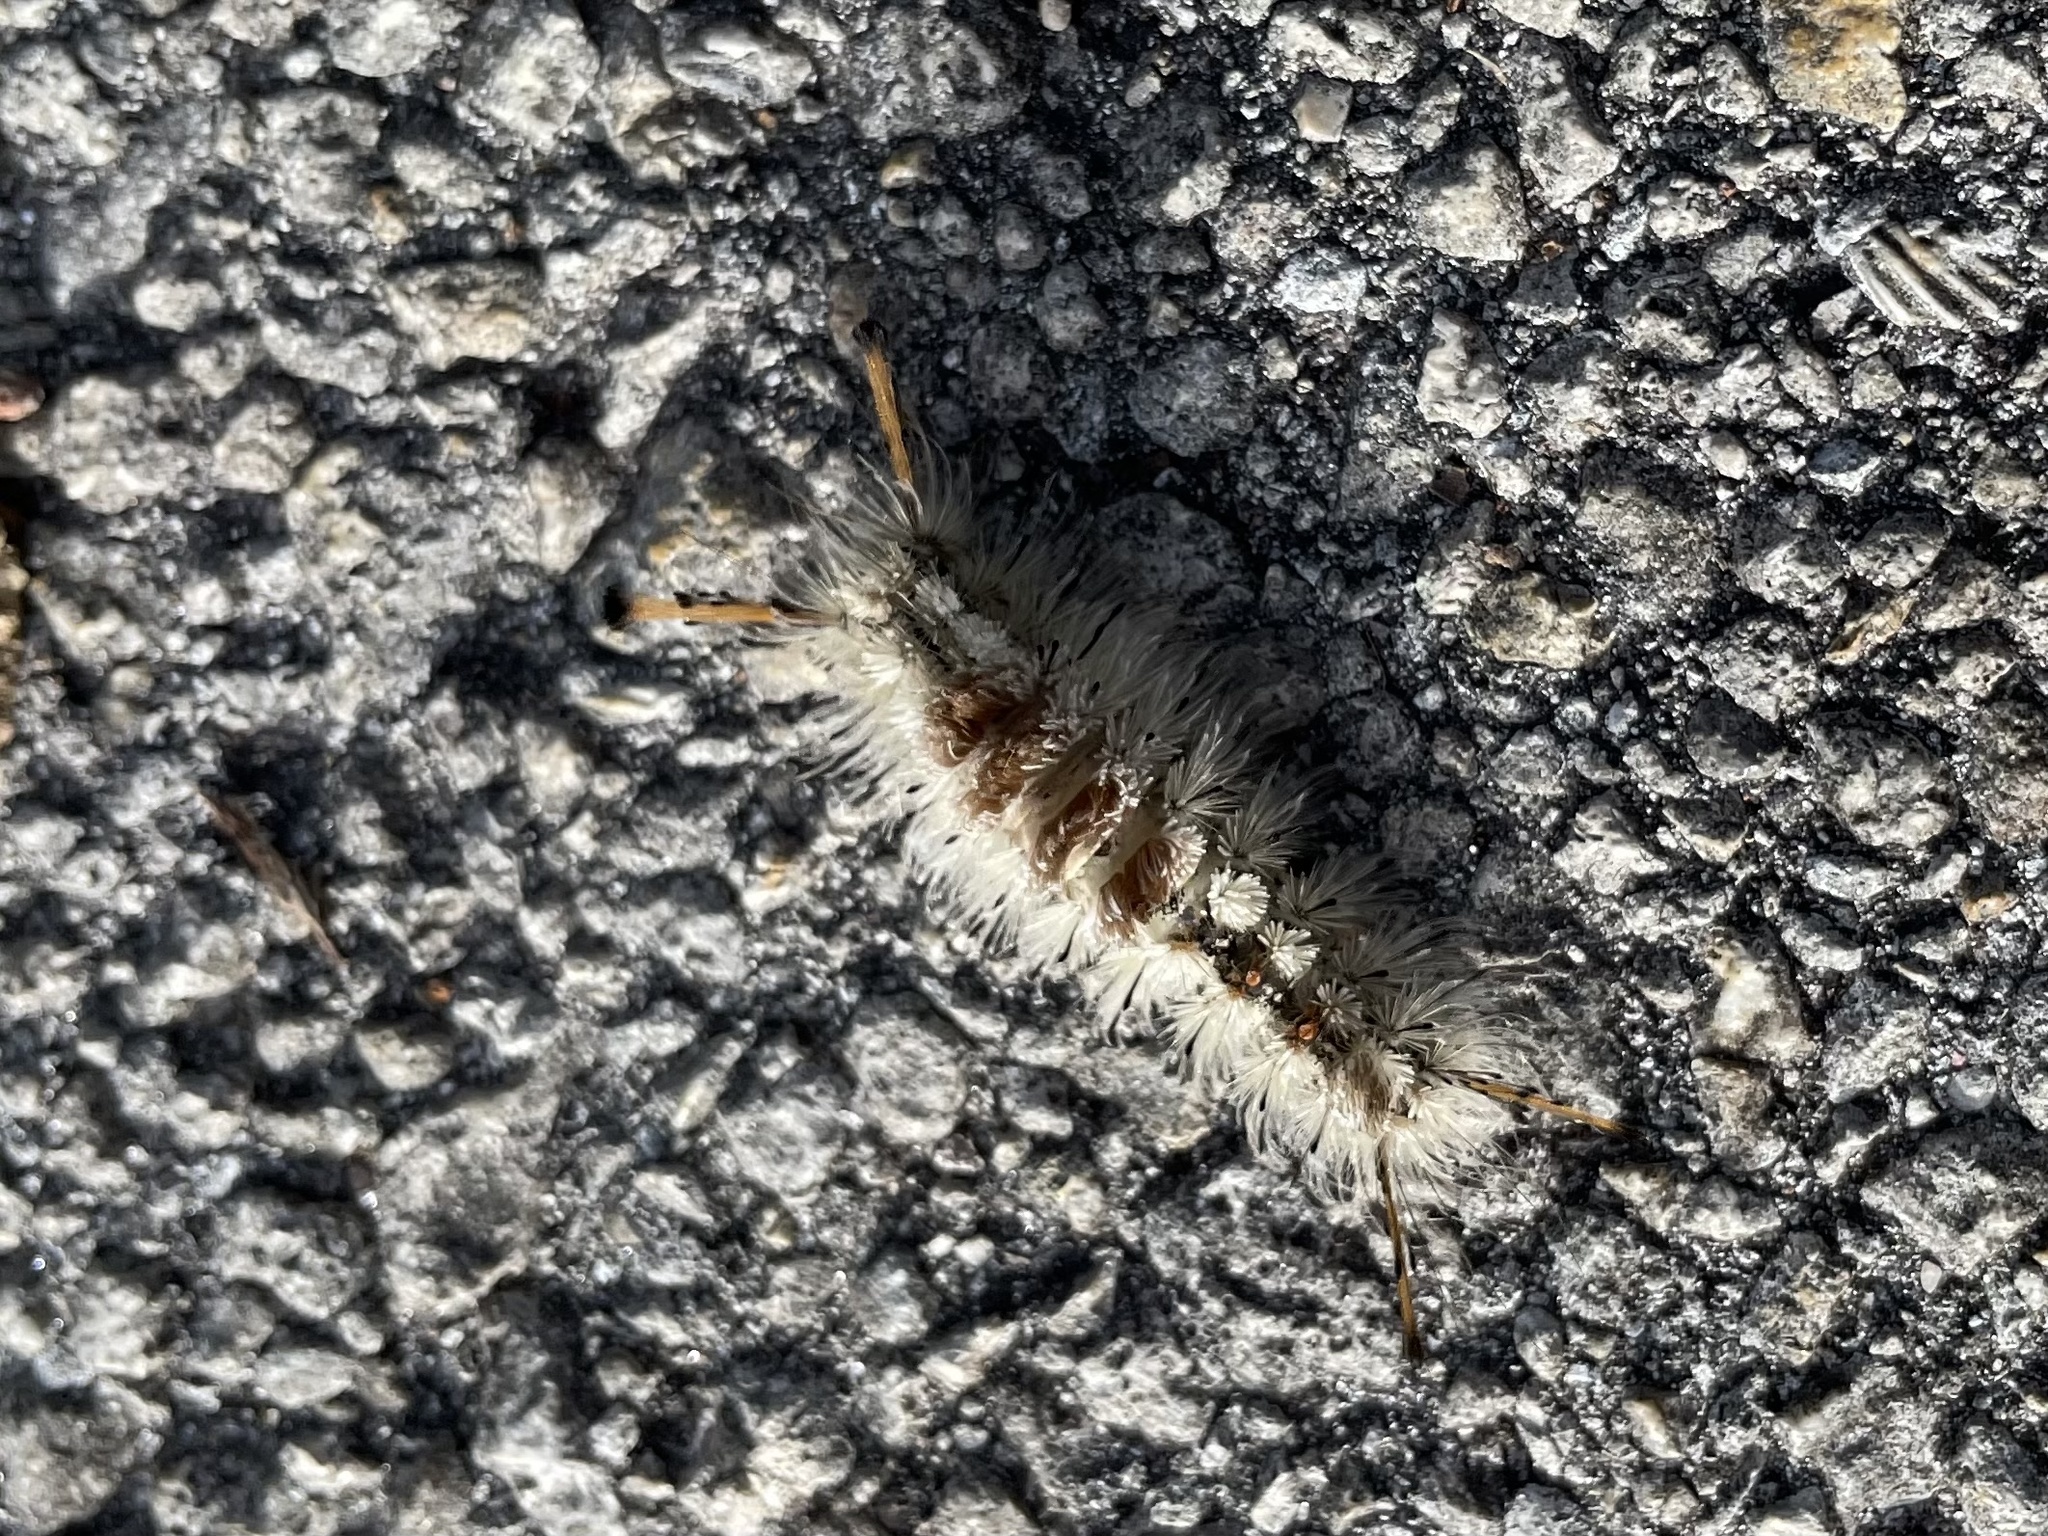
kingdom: Animalia
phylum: Arthropoda
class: Insecta
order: Lepidoptera
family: Erebidae
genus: Dasychira
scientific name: Dasychira meridionalis
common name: Southern tussock moth
